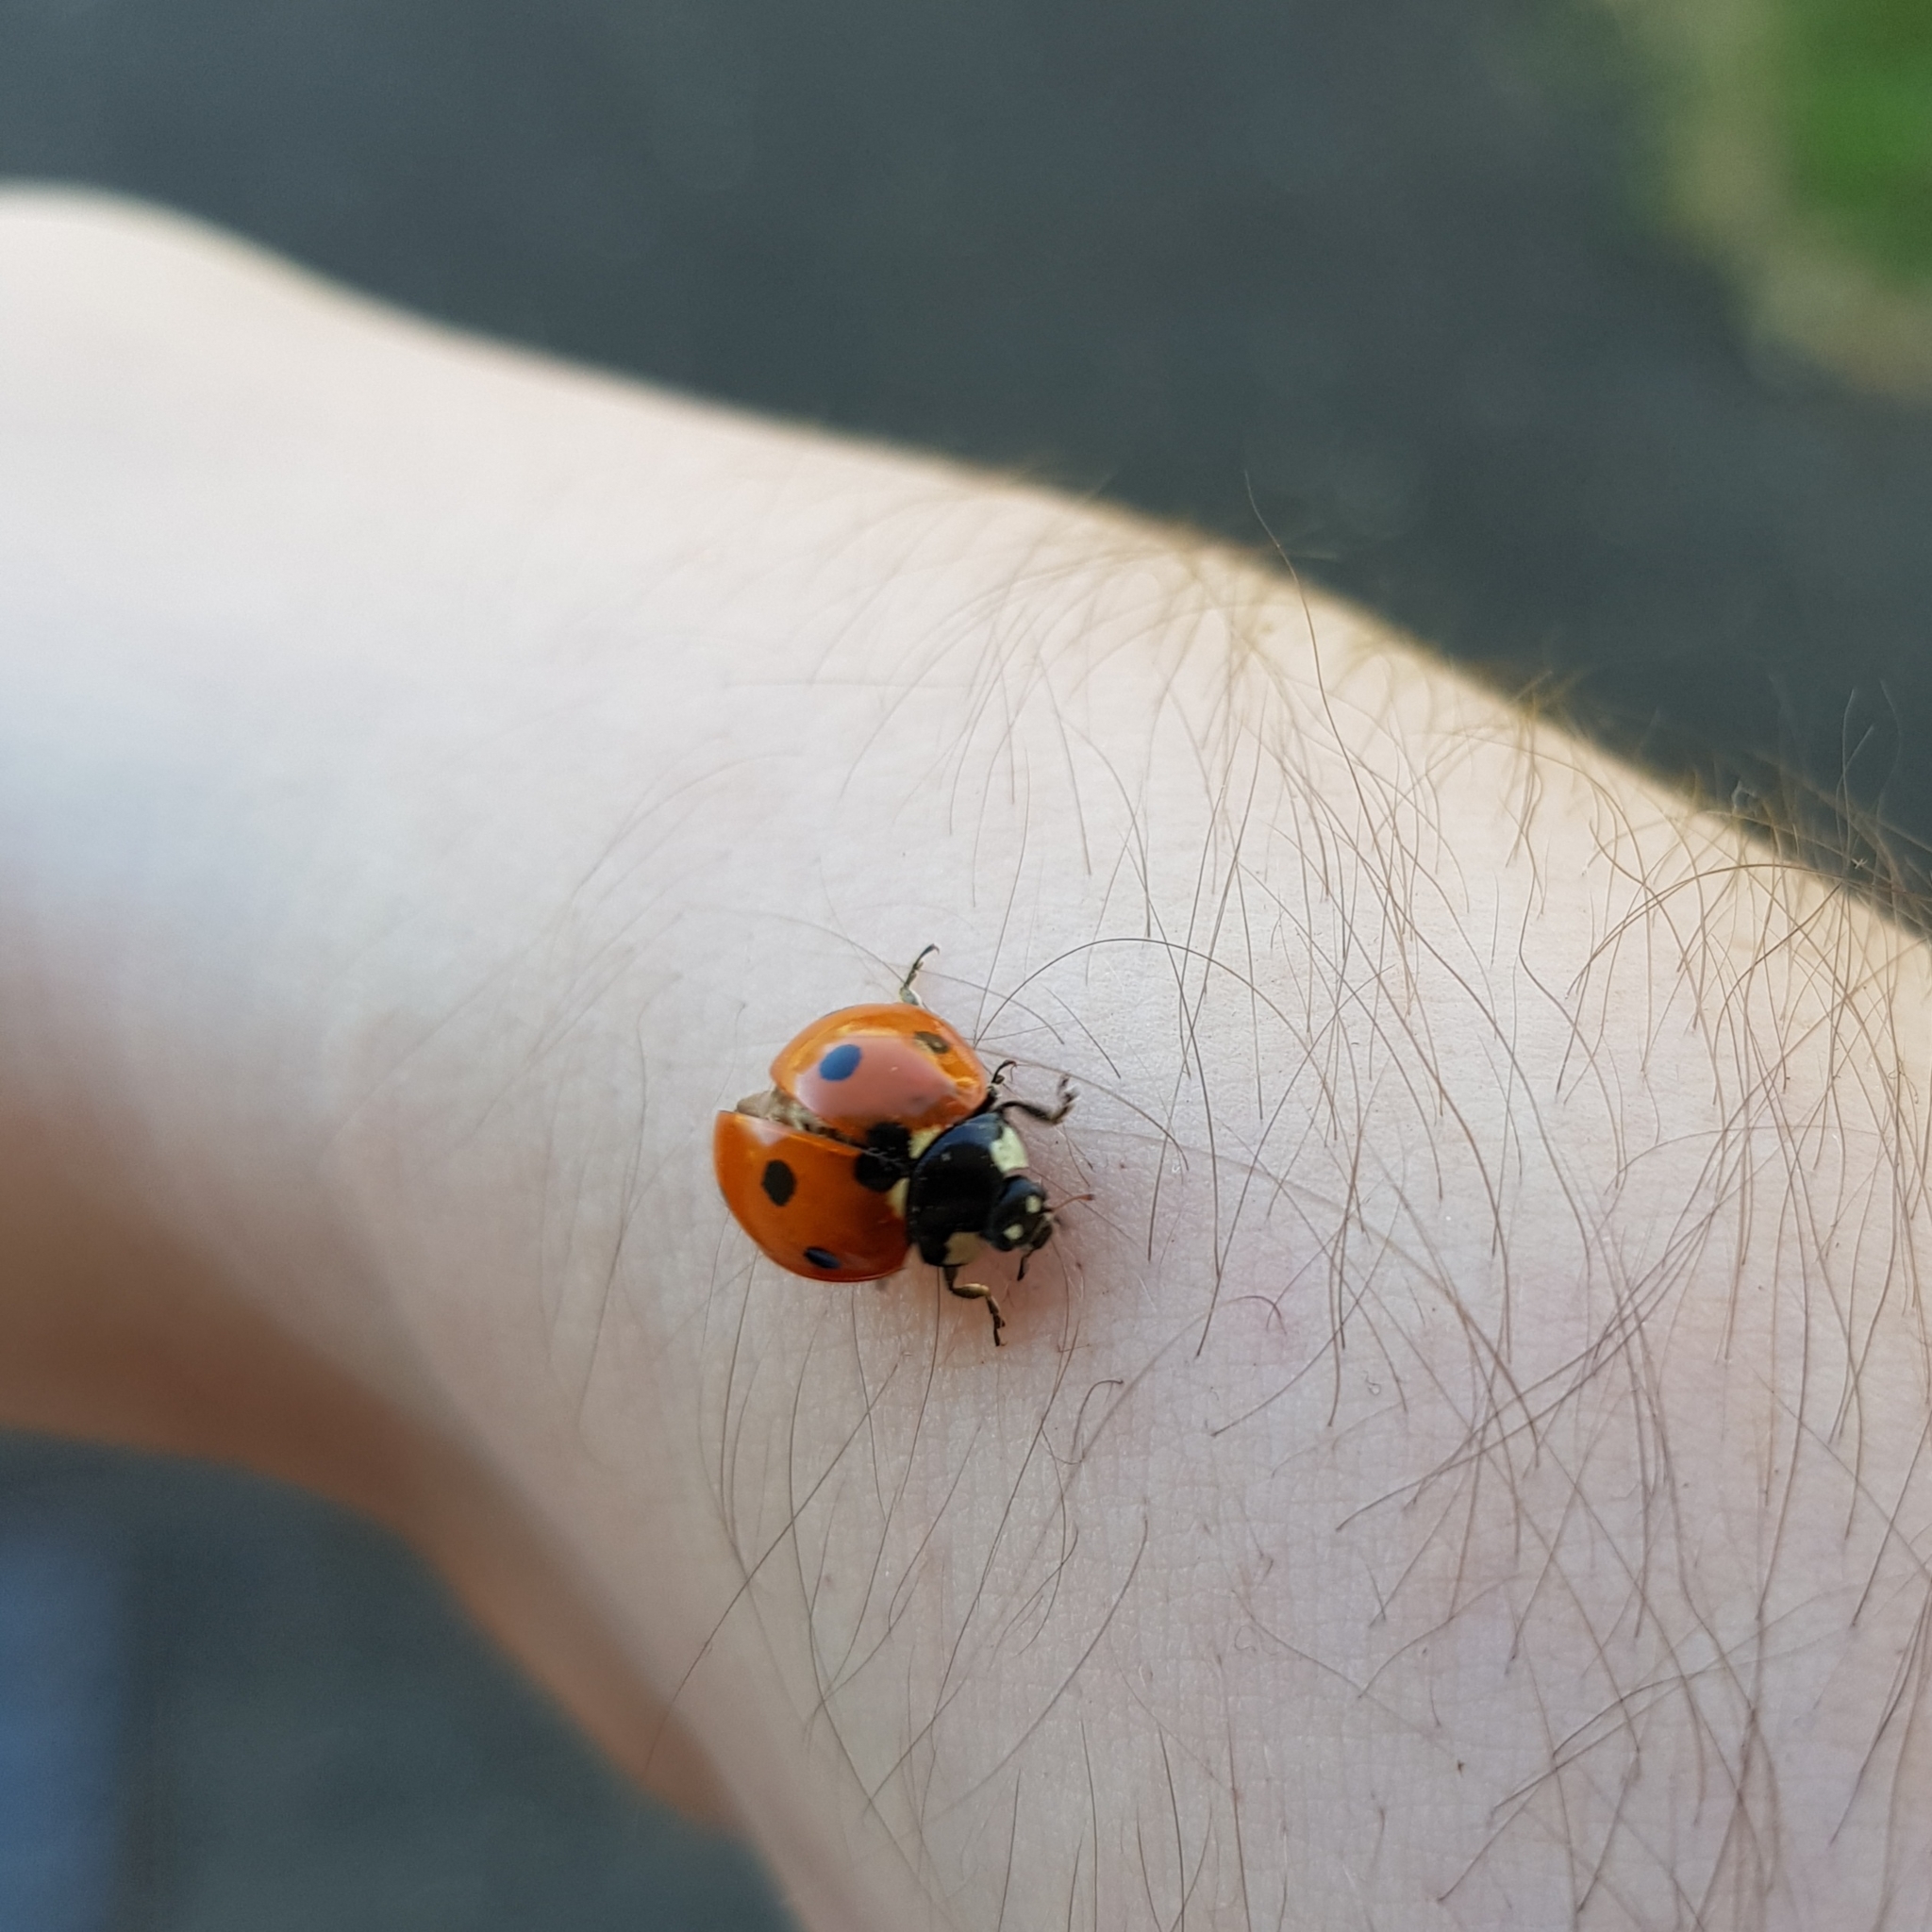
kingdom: Animalia
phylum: Arthropoda
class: Insecta
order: Coleoptera
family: Coccinellidae
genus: Coccinella
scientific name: Coccinella septempunctata
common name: Sevenspotted lady beetle
